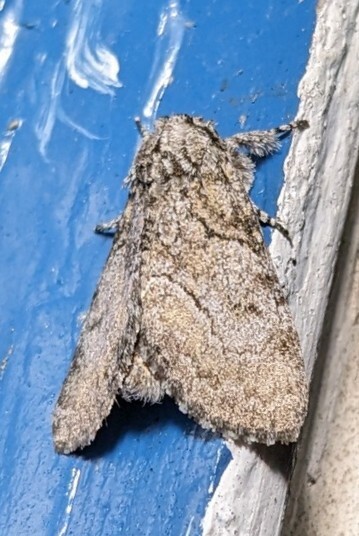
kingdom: Animalia
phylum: Arthropoda
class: Insecta
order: Lepidoptera
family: Noctuidae
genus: Raphia
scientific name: Raphia frater
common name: Brother
